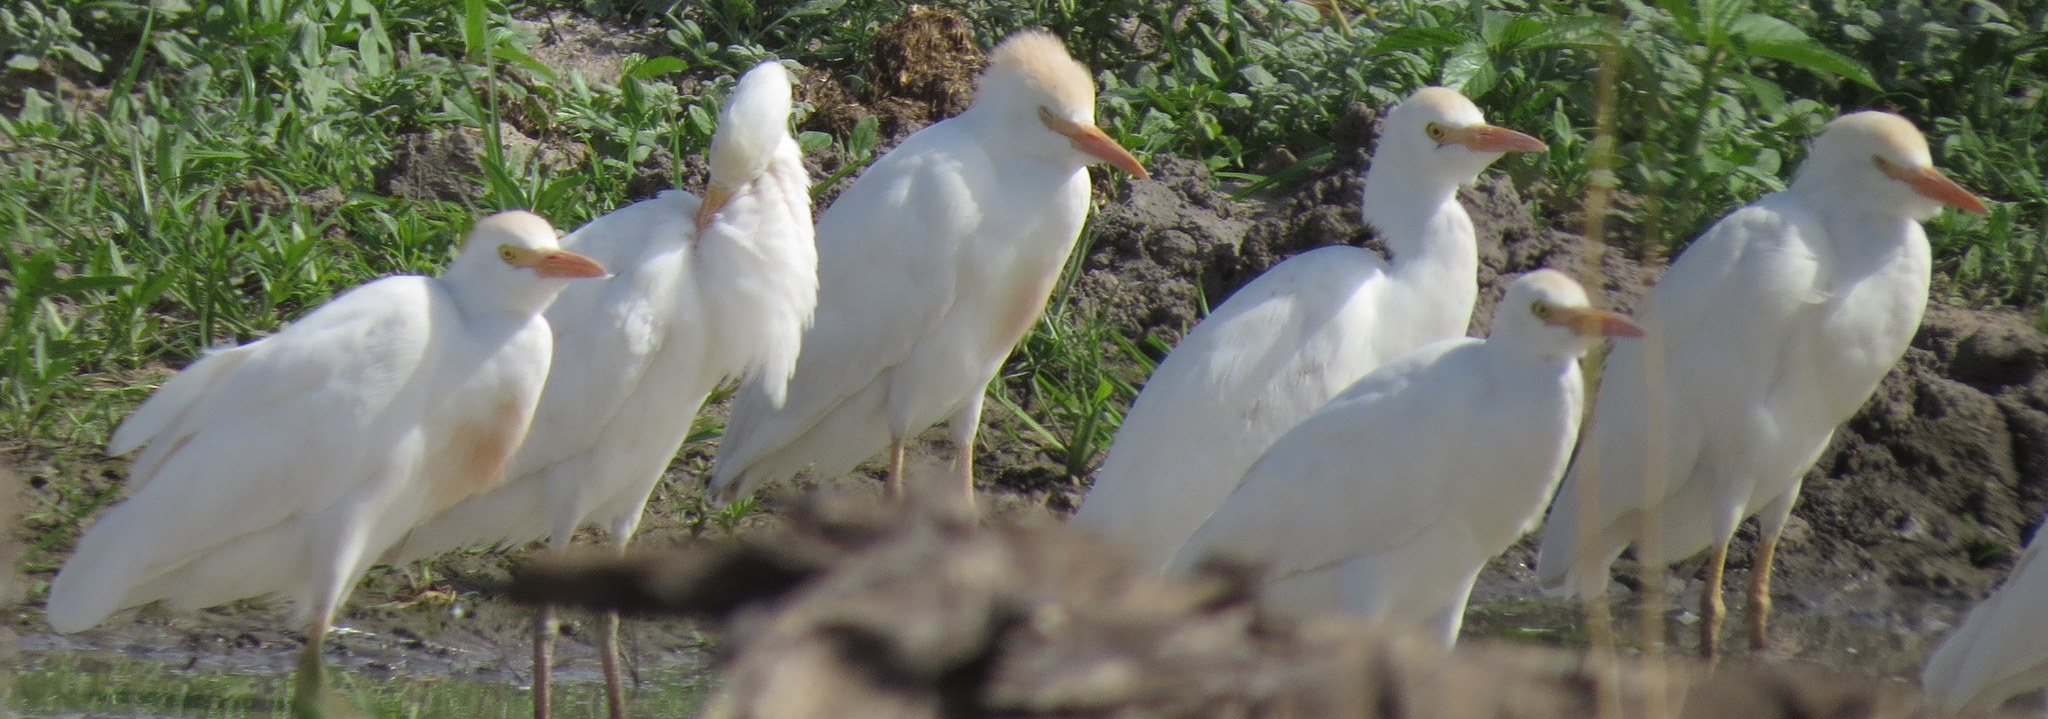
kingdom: Animalia
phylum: Chordata
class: Aves
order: Pelecaniformes
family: Ardeidae
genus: Bubulcus
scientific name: Bubulcus ibis
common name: Cattle egret
